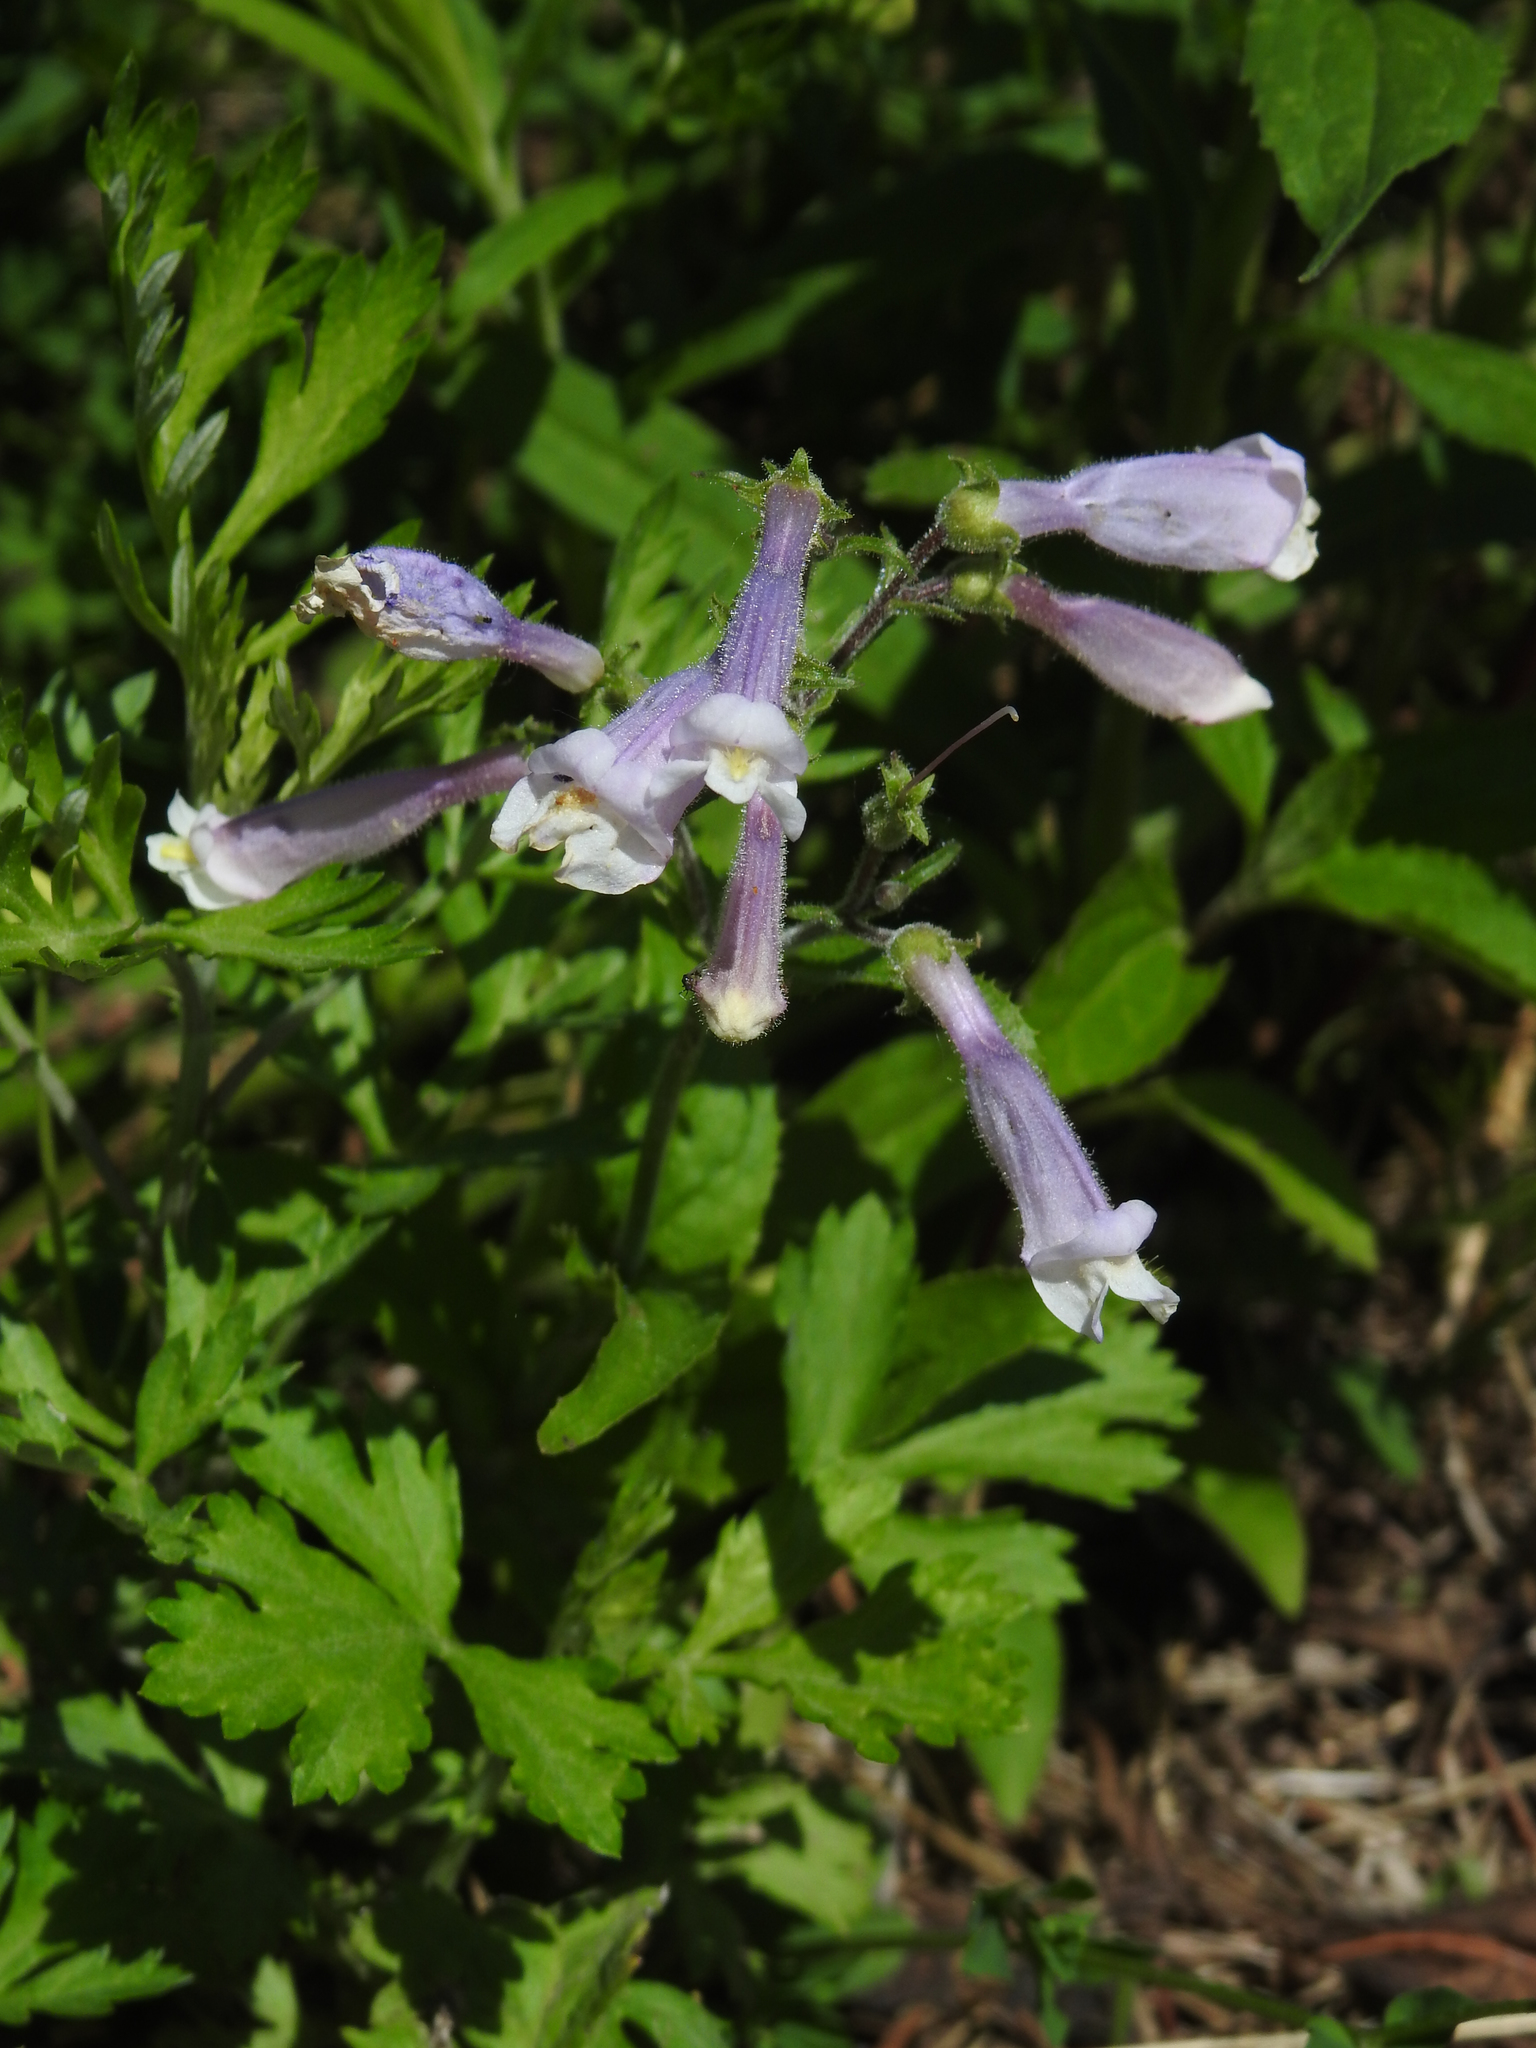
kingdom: Plantae
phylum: Tracheophyta
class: Magnoliopsida
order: Lamiales
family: Plantaginaceae
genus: Penstemon
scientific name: Penstemon hirsutus
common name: Hairy beardtongue
